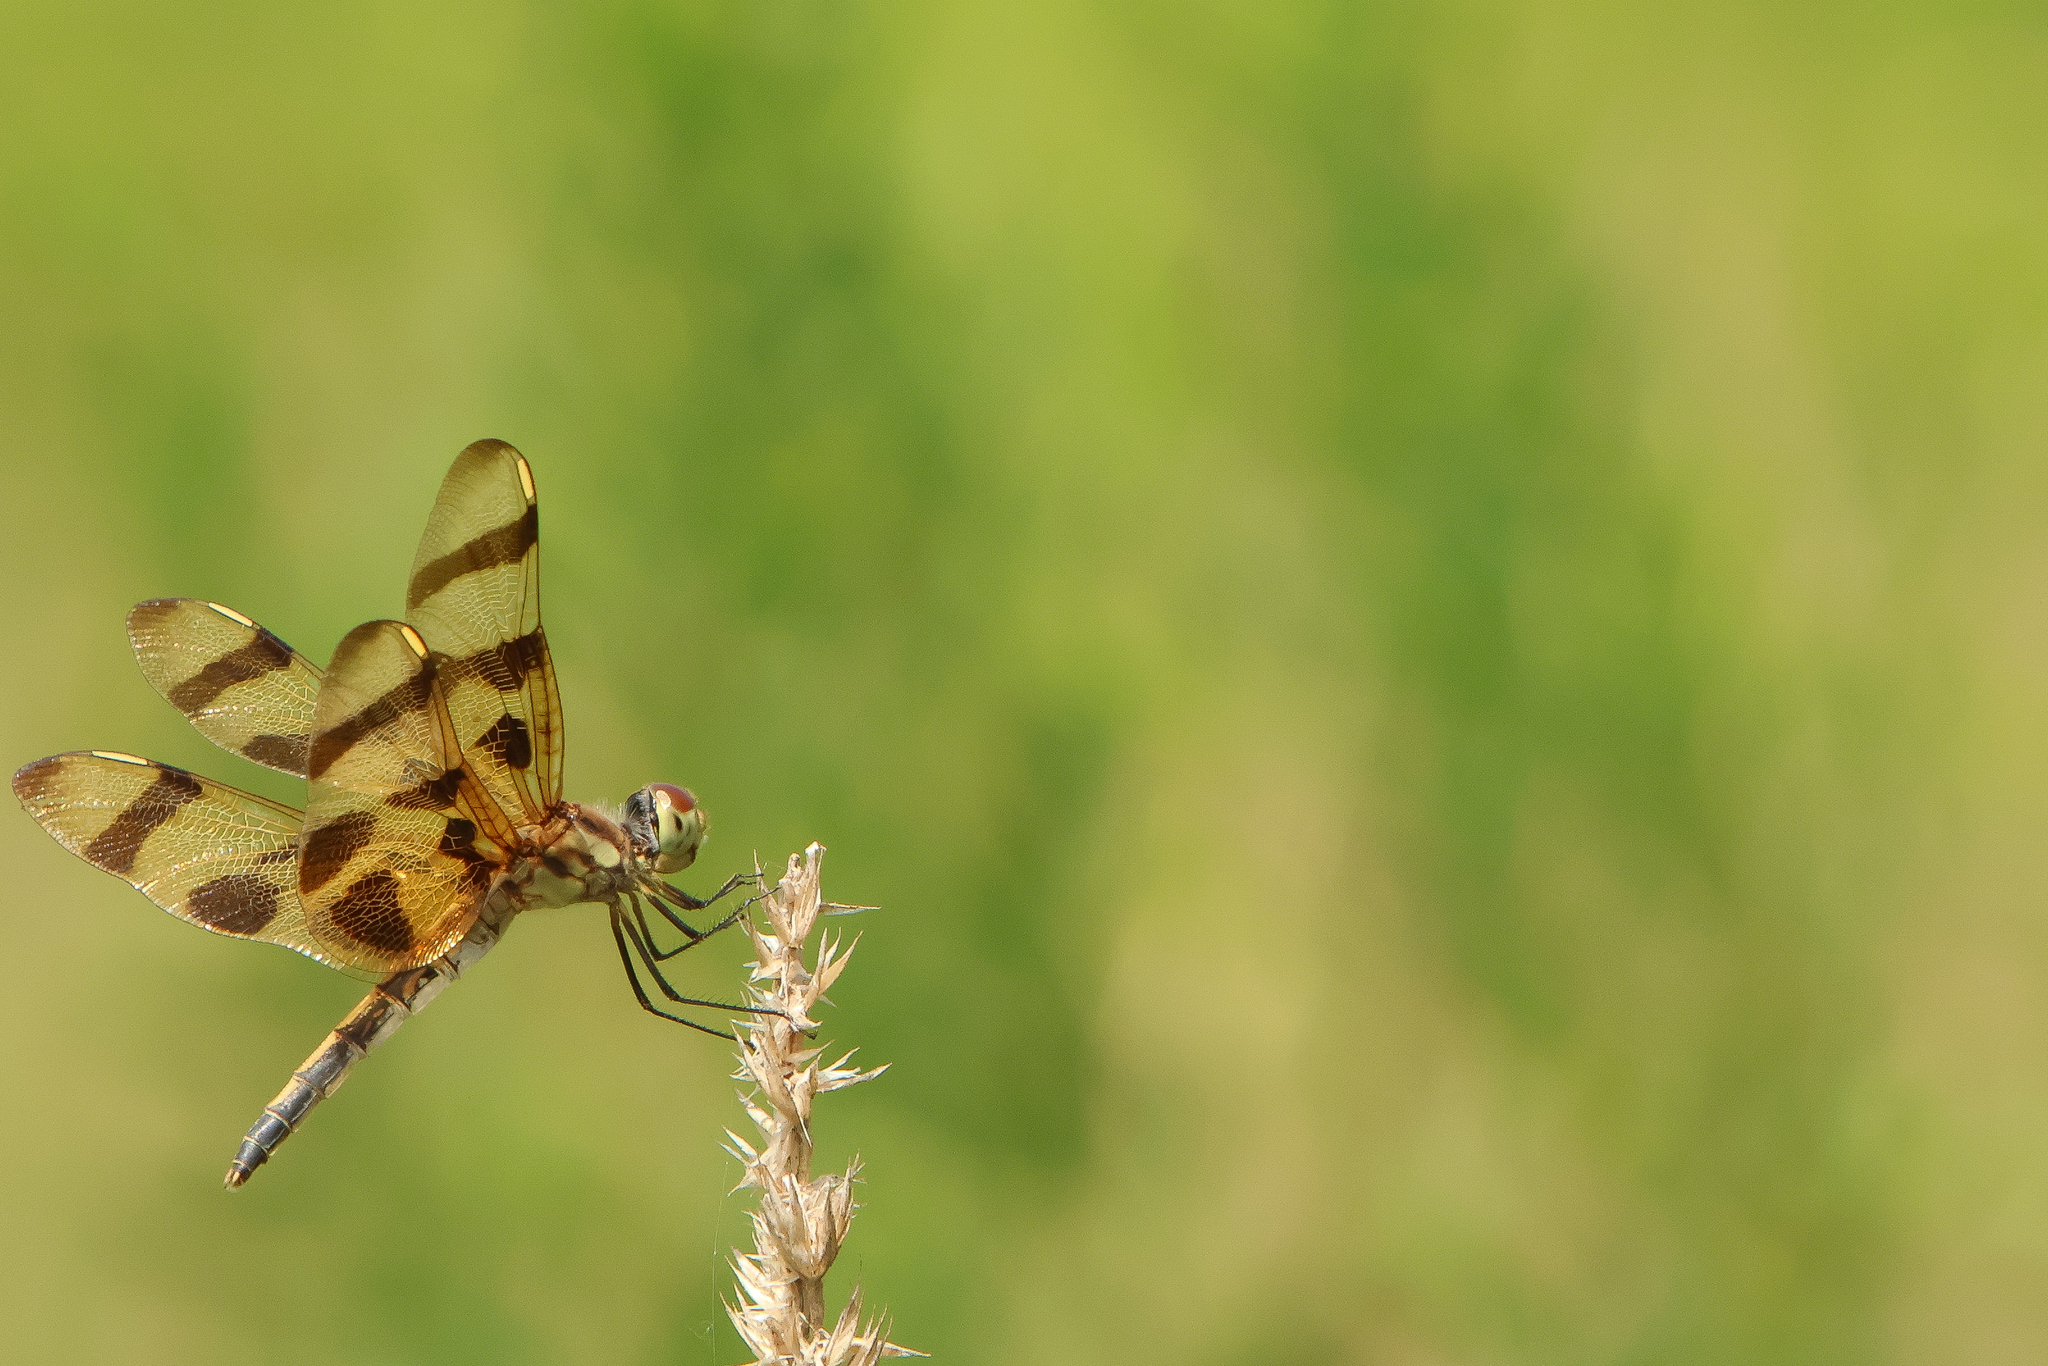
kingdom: Animalia
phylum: Arthropoda
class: Insecta
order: Odonata
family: Libellulidae
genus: Celithemis
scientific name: Celithemis eponina
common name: Halloween pennant
